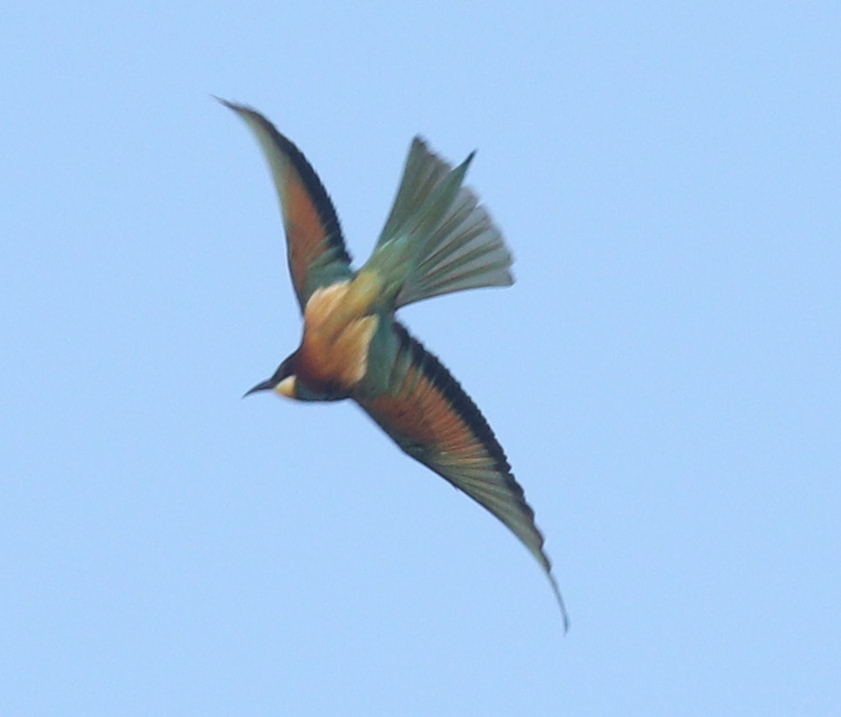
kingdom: Animalia
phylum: Chordata
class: Aves
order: Coraciiformes
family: Meropidae
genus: Merops
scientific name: Merops apiaster
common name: European bee-eater
